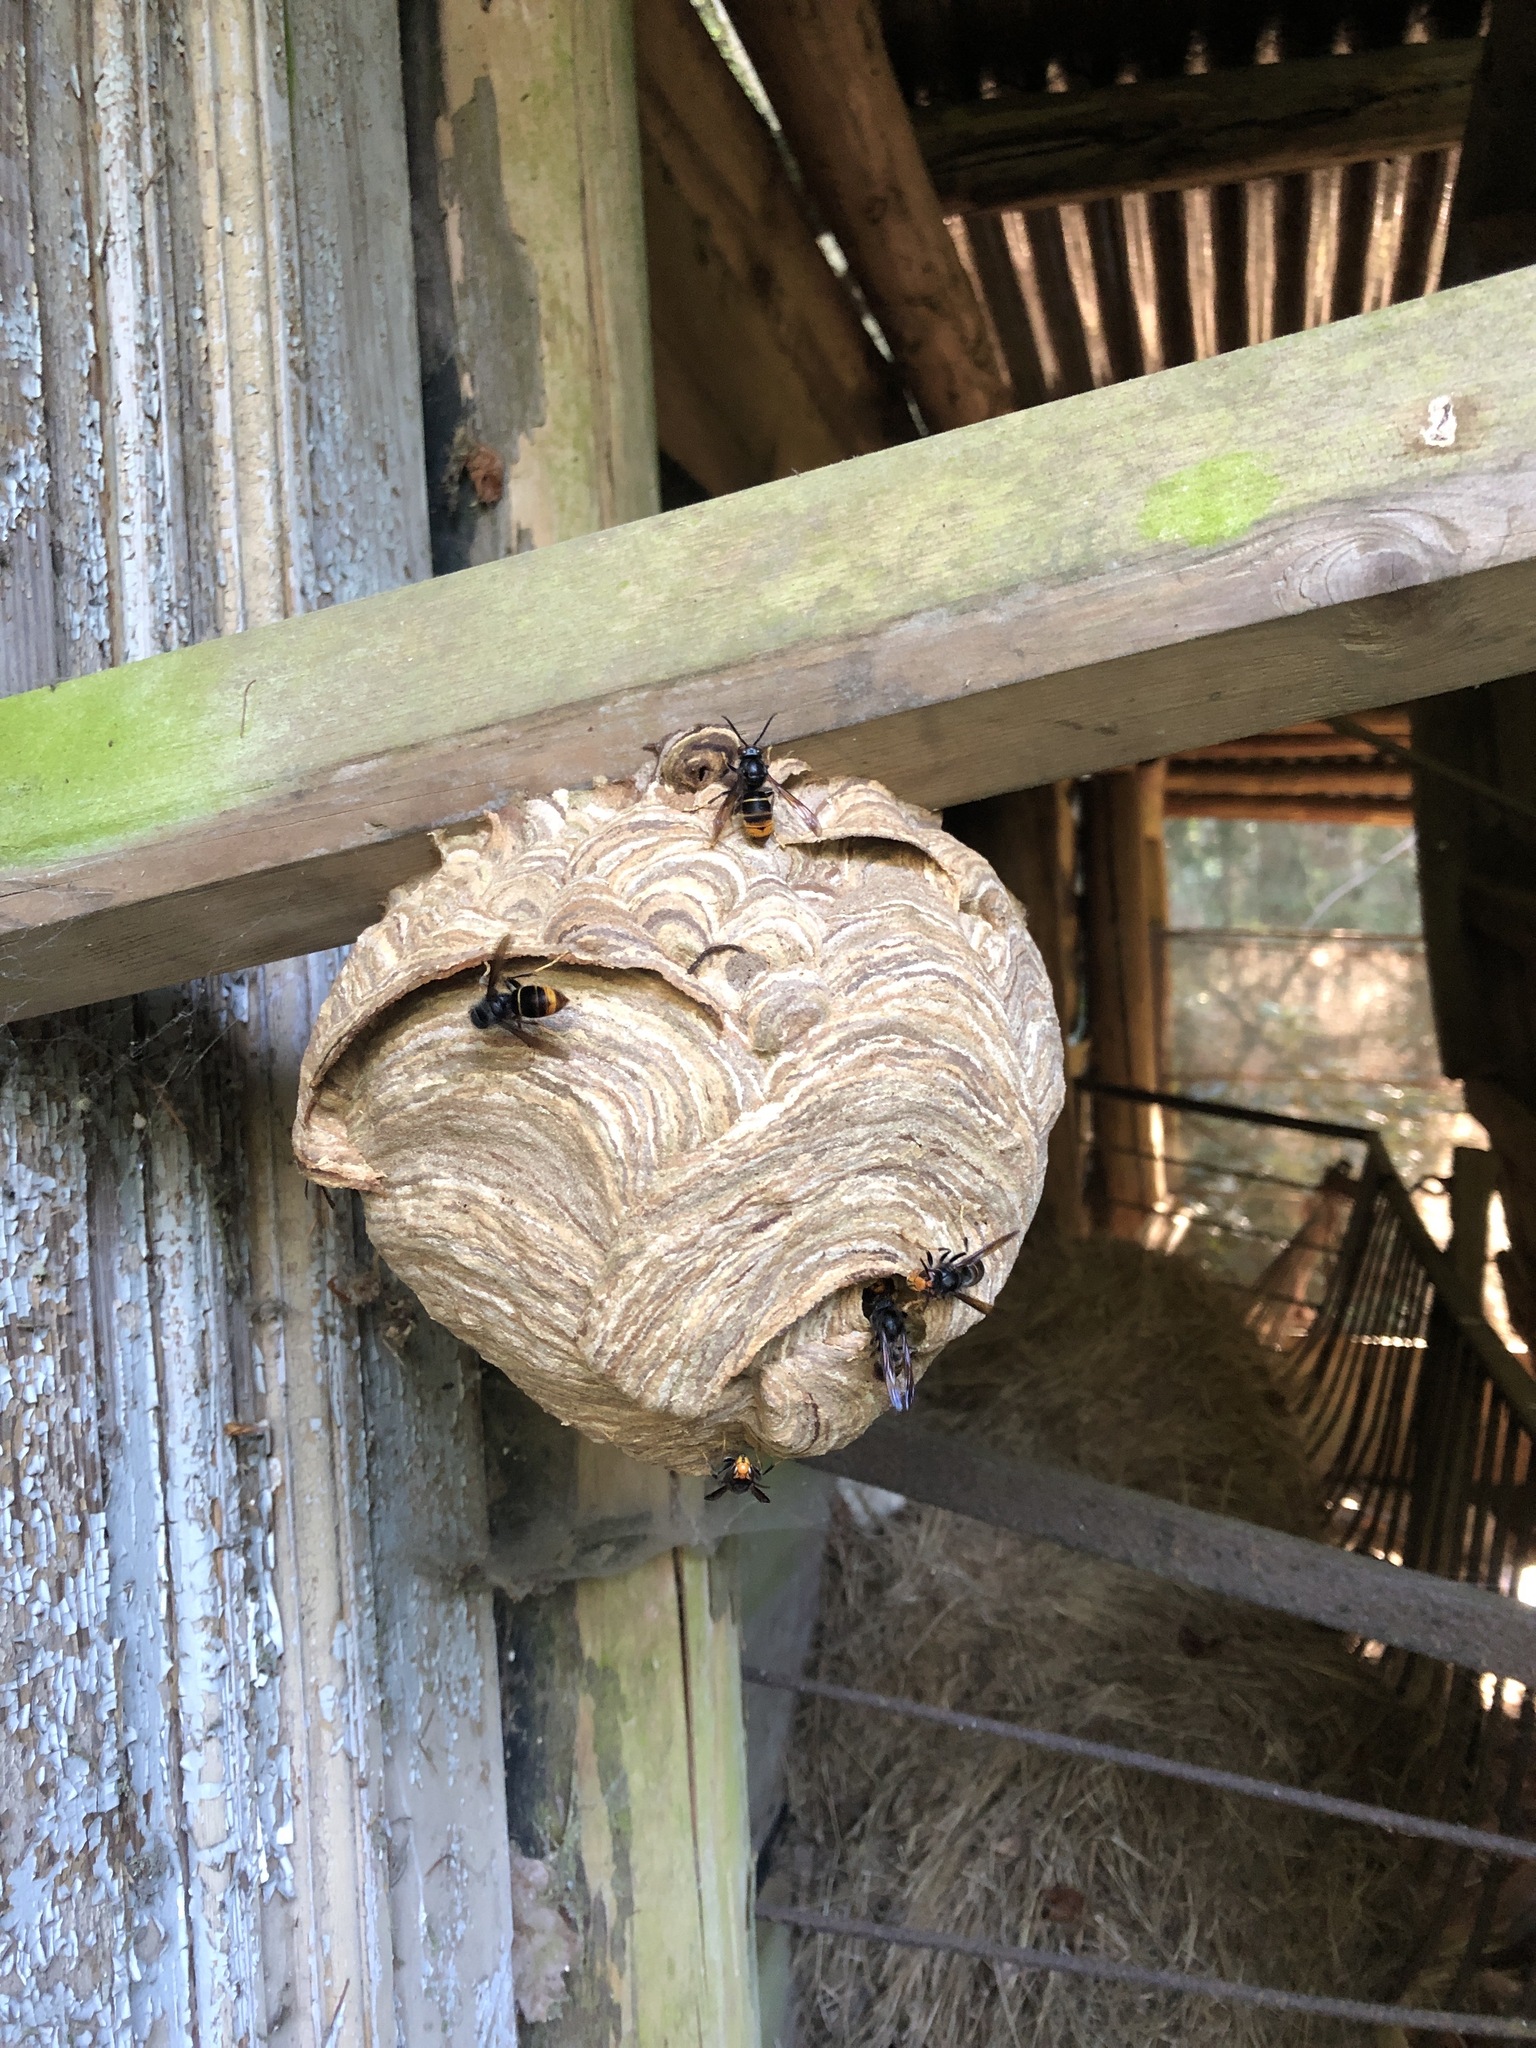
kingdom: Animalia
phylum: Arthropoda
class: Insecta
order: Hymenoptera
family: Vespidae
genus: Vespa
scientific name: Vespa velutina
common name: Asian hornet
